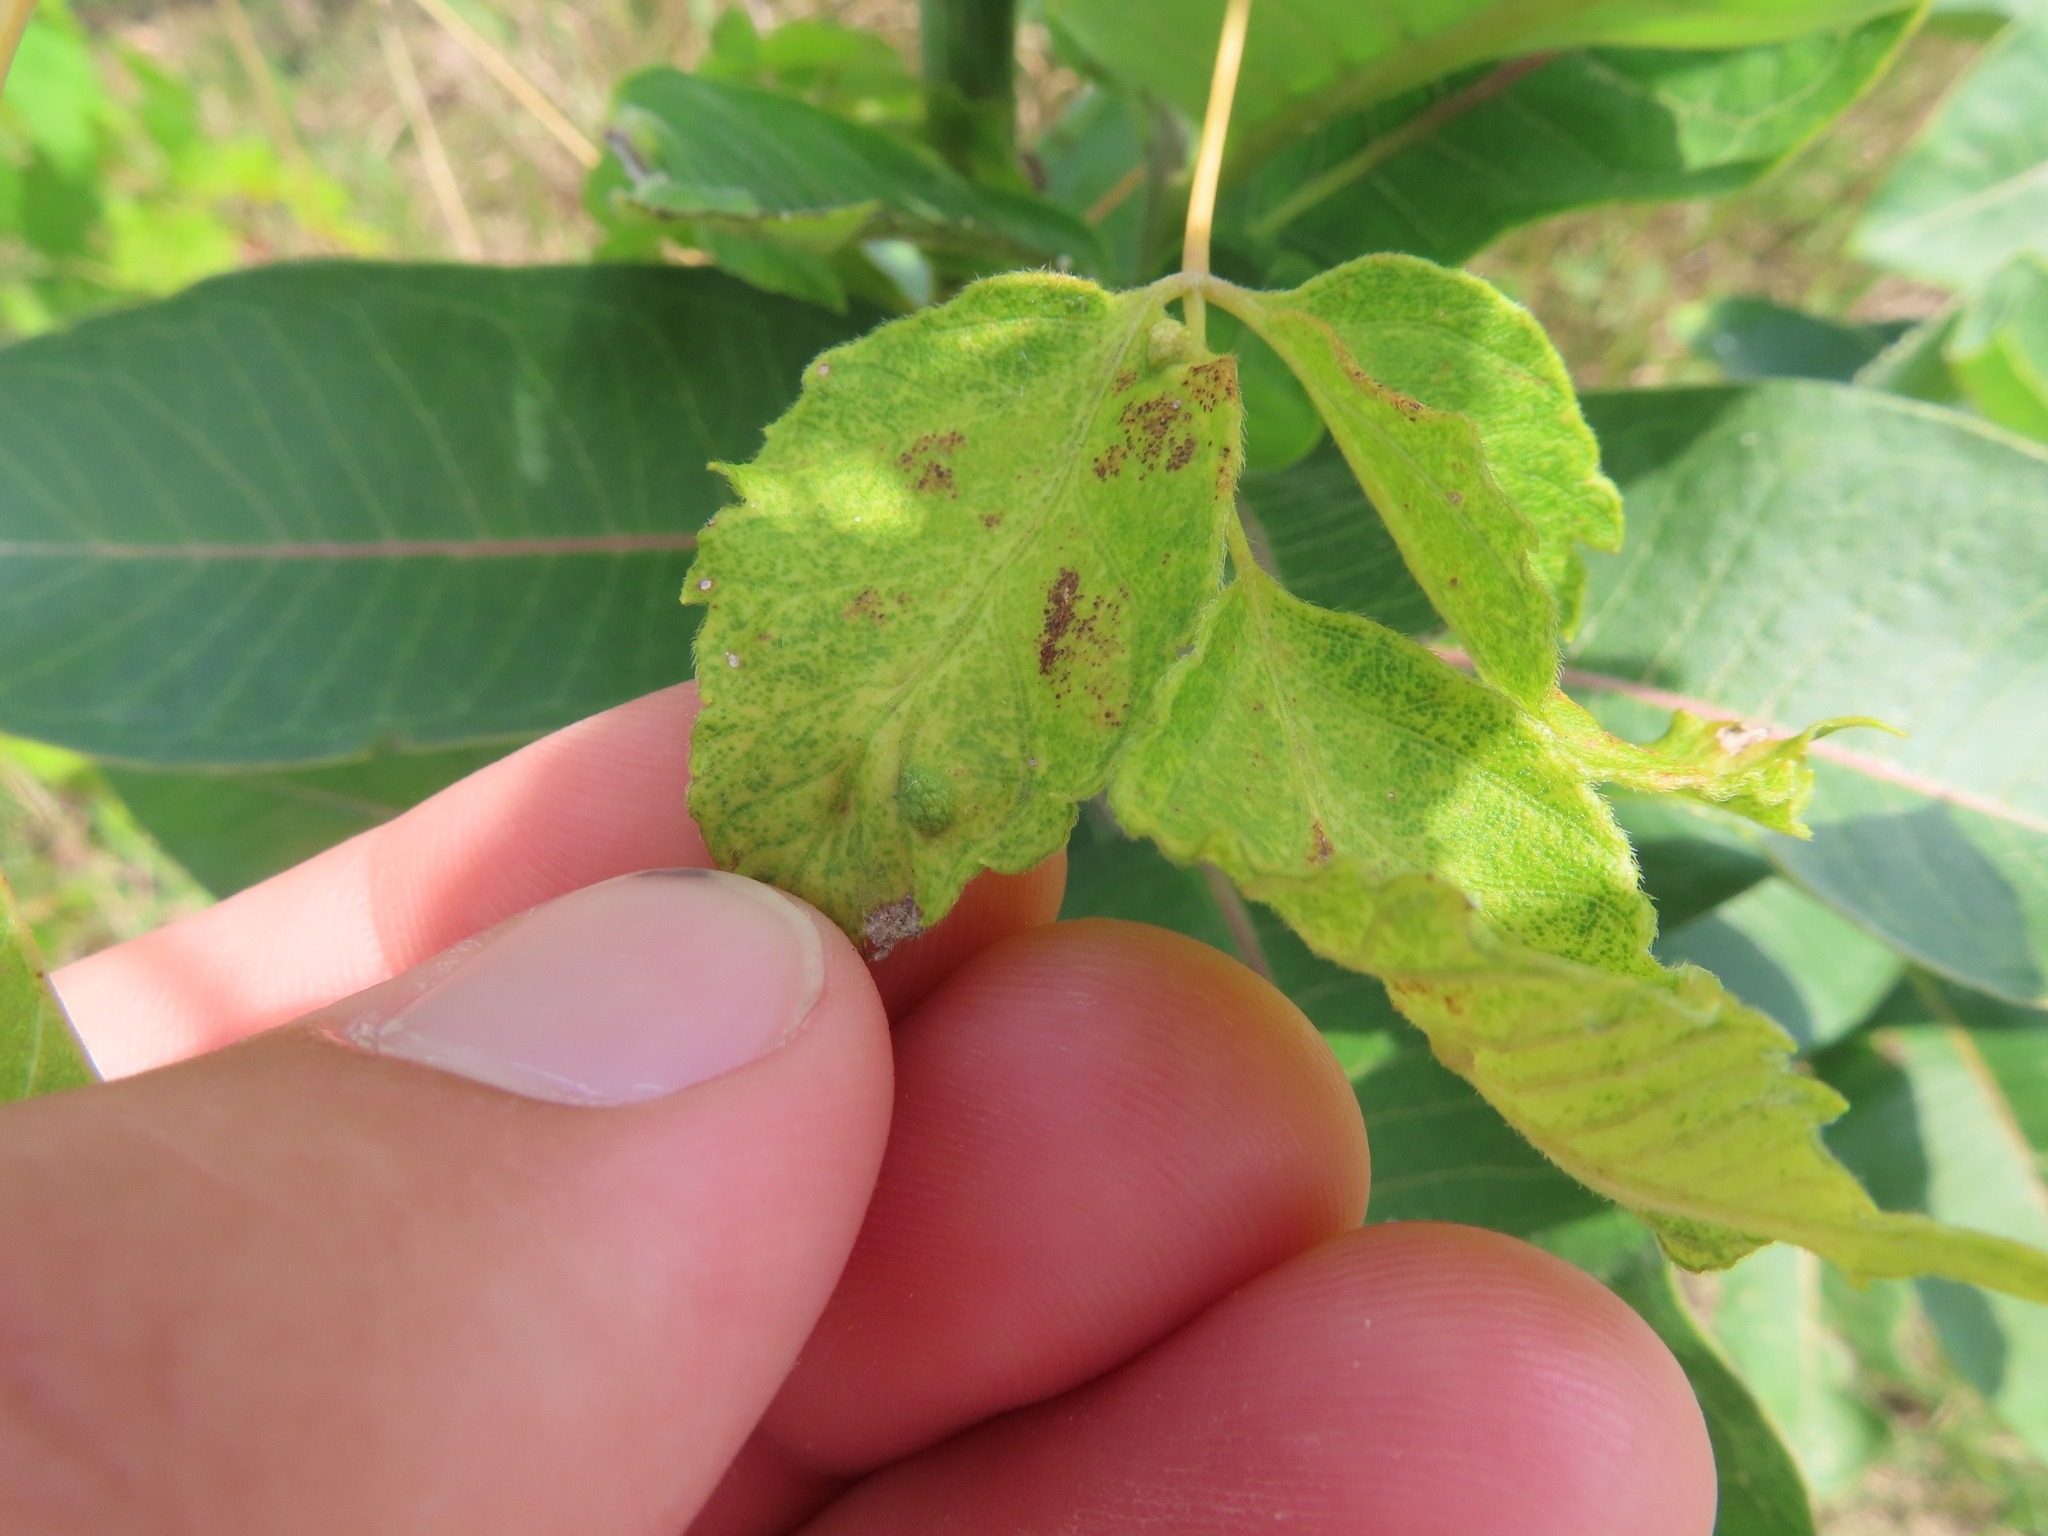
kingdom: Animalia
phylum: Arthropoda
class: Arachnida
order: Trombidiformes
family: Eriophyidae
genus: Aceria
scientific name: Aceria
